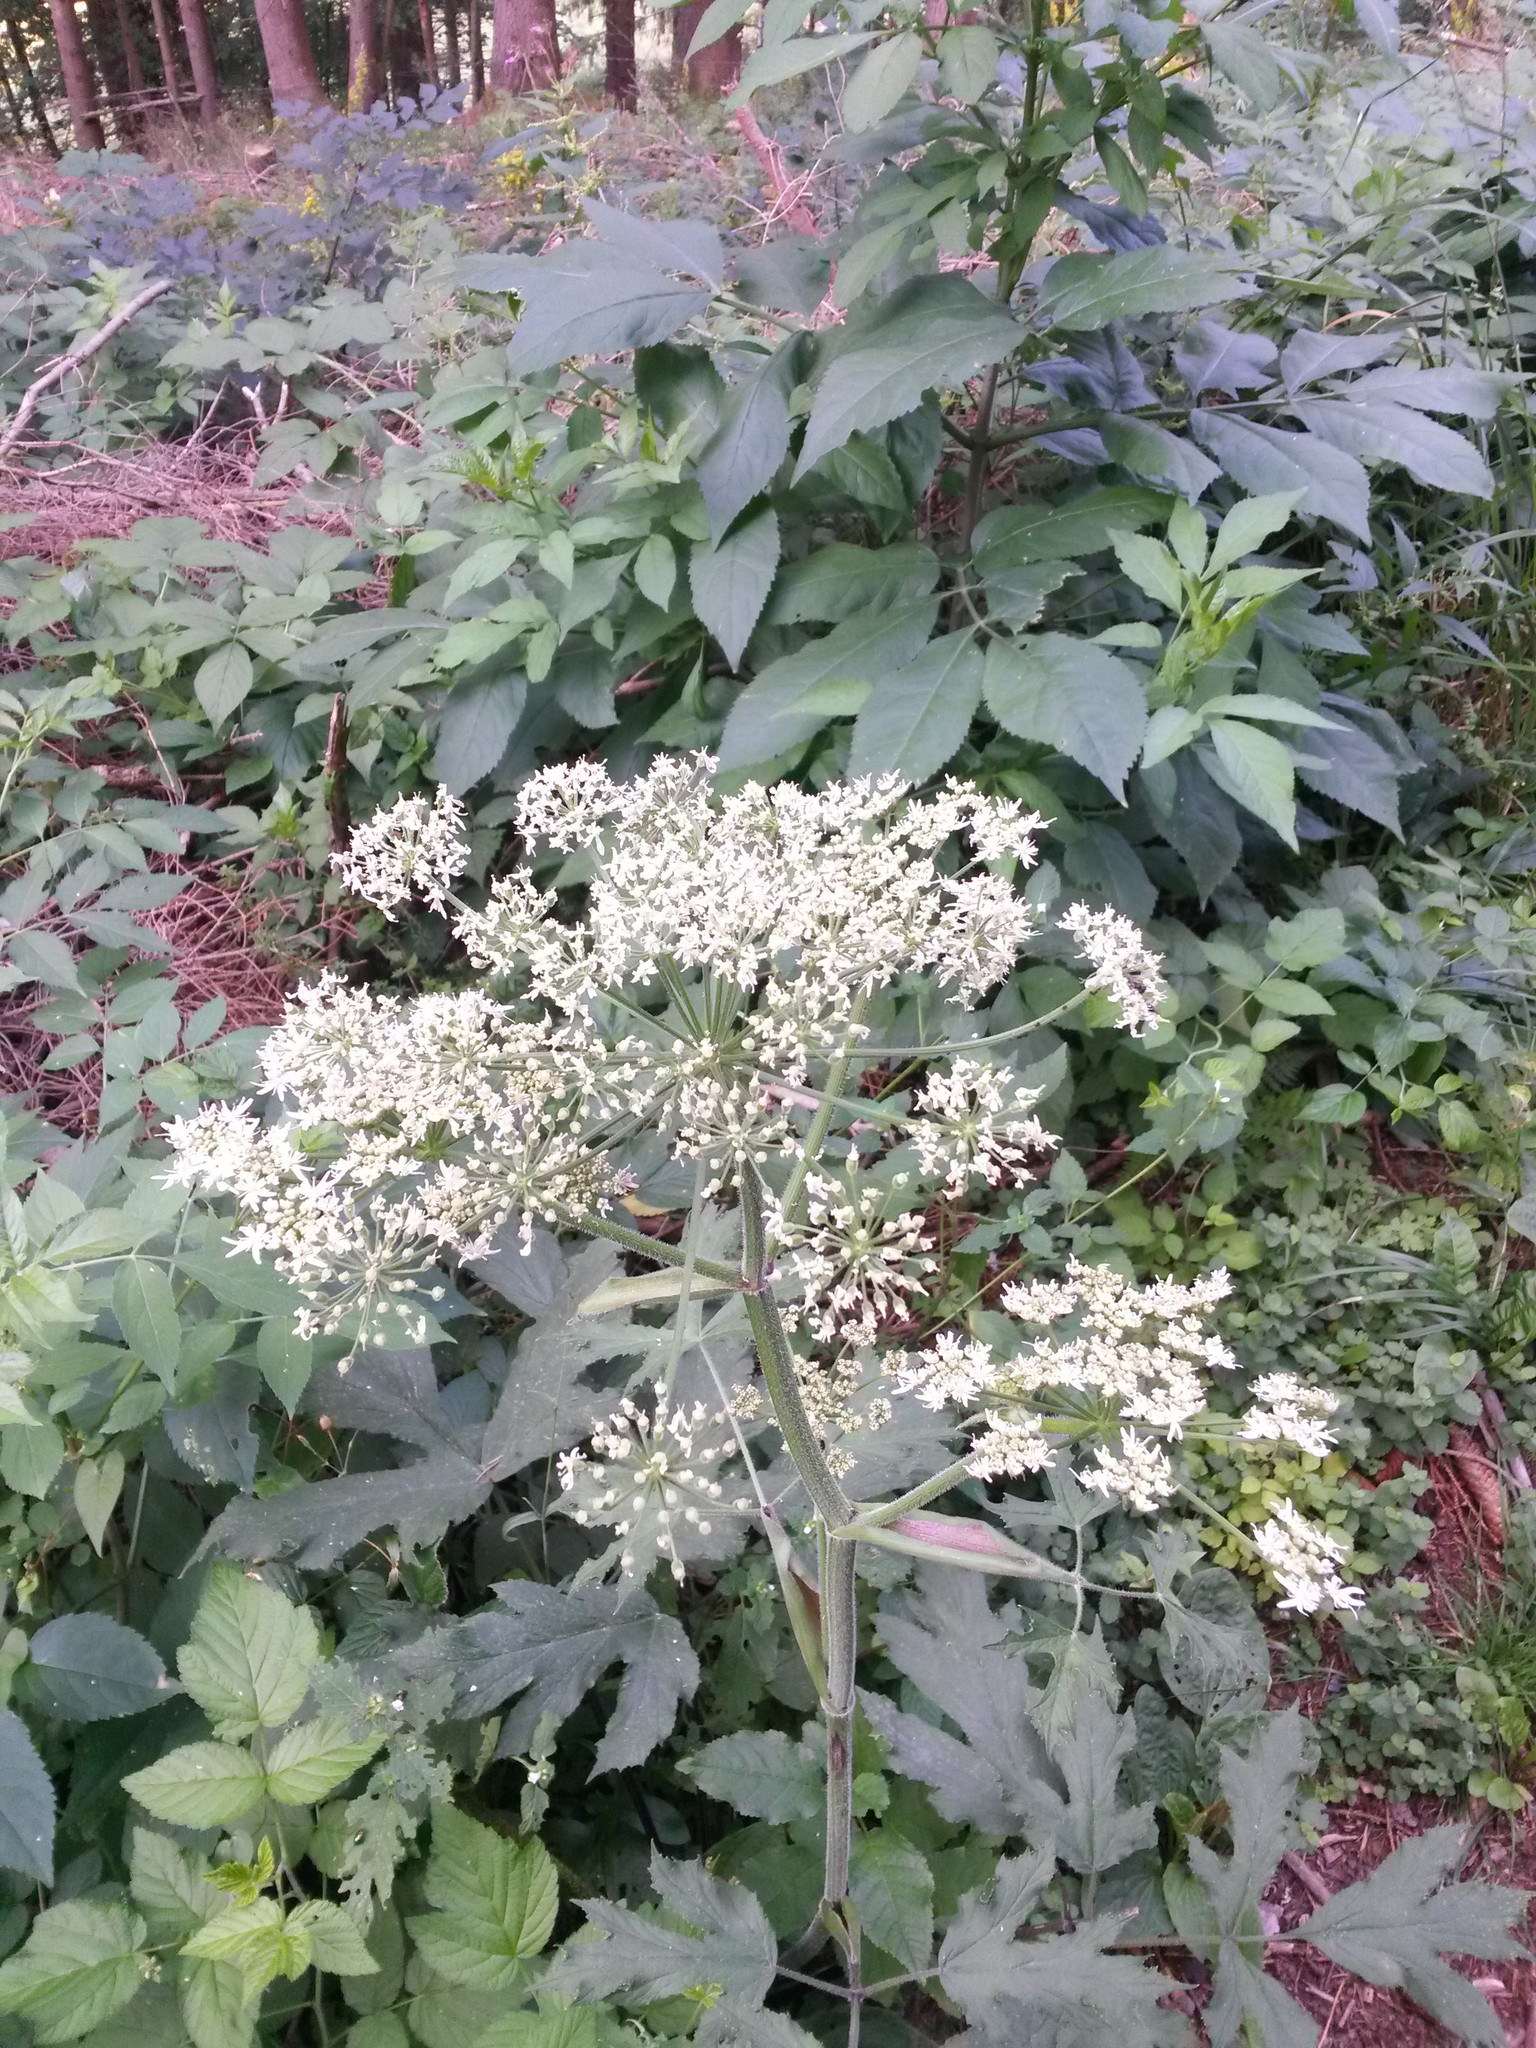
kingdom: Plantae
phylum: Tracheophyta
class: Magnoliopsida
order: Apiales
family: Apiaceae
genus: Heracleum
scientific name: Heracleum sphondylium
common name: Hogweed
